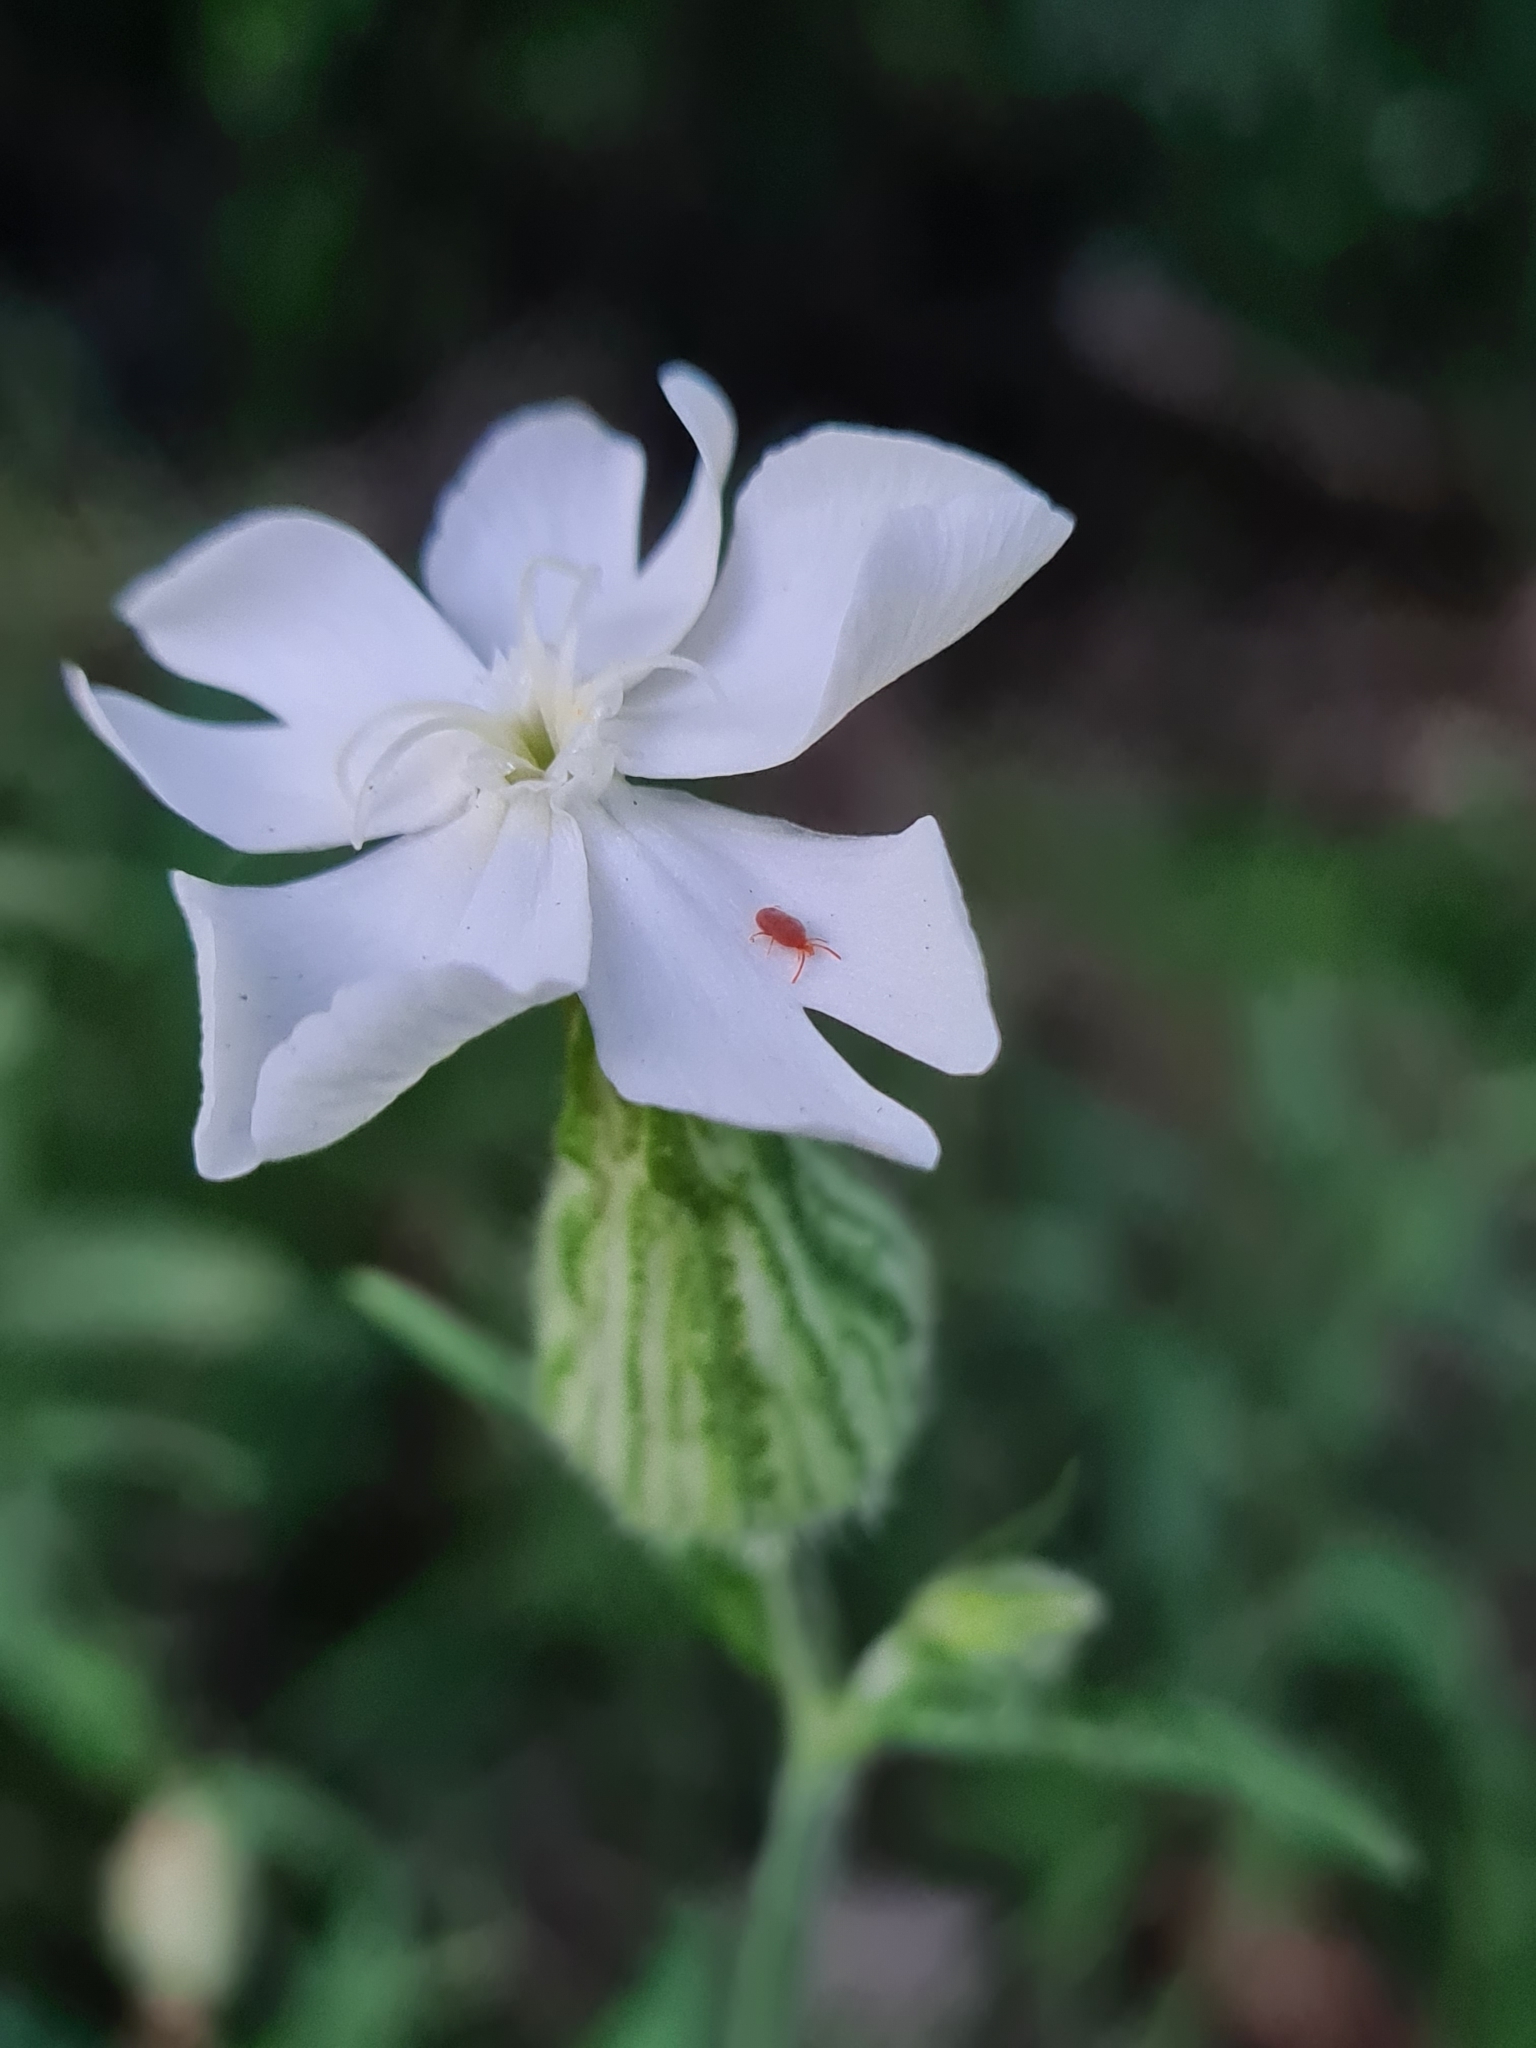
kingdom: Plantae
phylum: Tracheophyta
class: Magnoliopsida
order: Caryophyllales
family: Caryophyllaceae
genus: Silene
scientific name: Silene latifolia
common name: White campion
